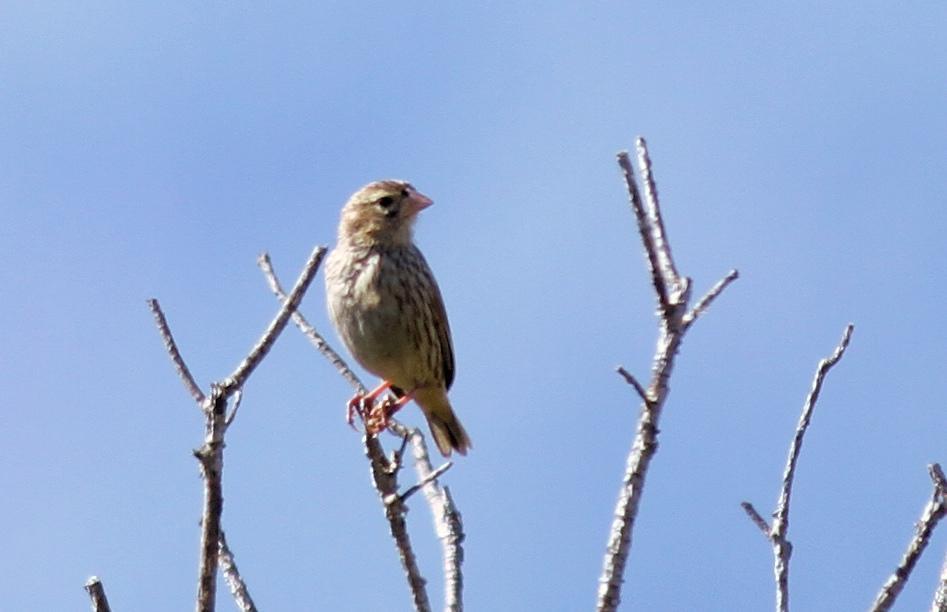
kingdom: Animalia
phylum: Chordata
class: Aves
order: Passeriformes
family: Ploceidae
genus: Euplectes
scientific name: Euplectes capensis
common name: Yellow bishop
